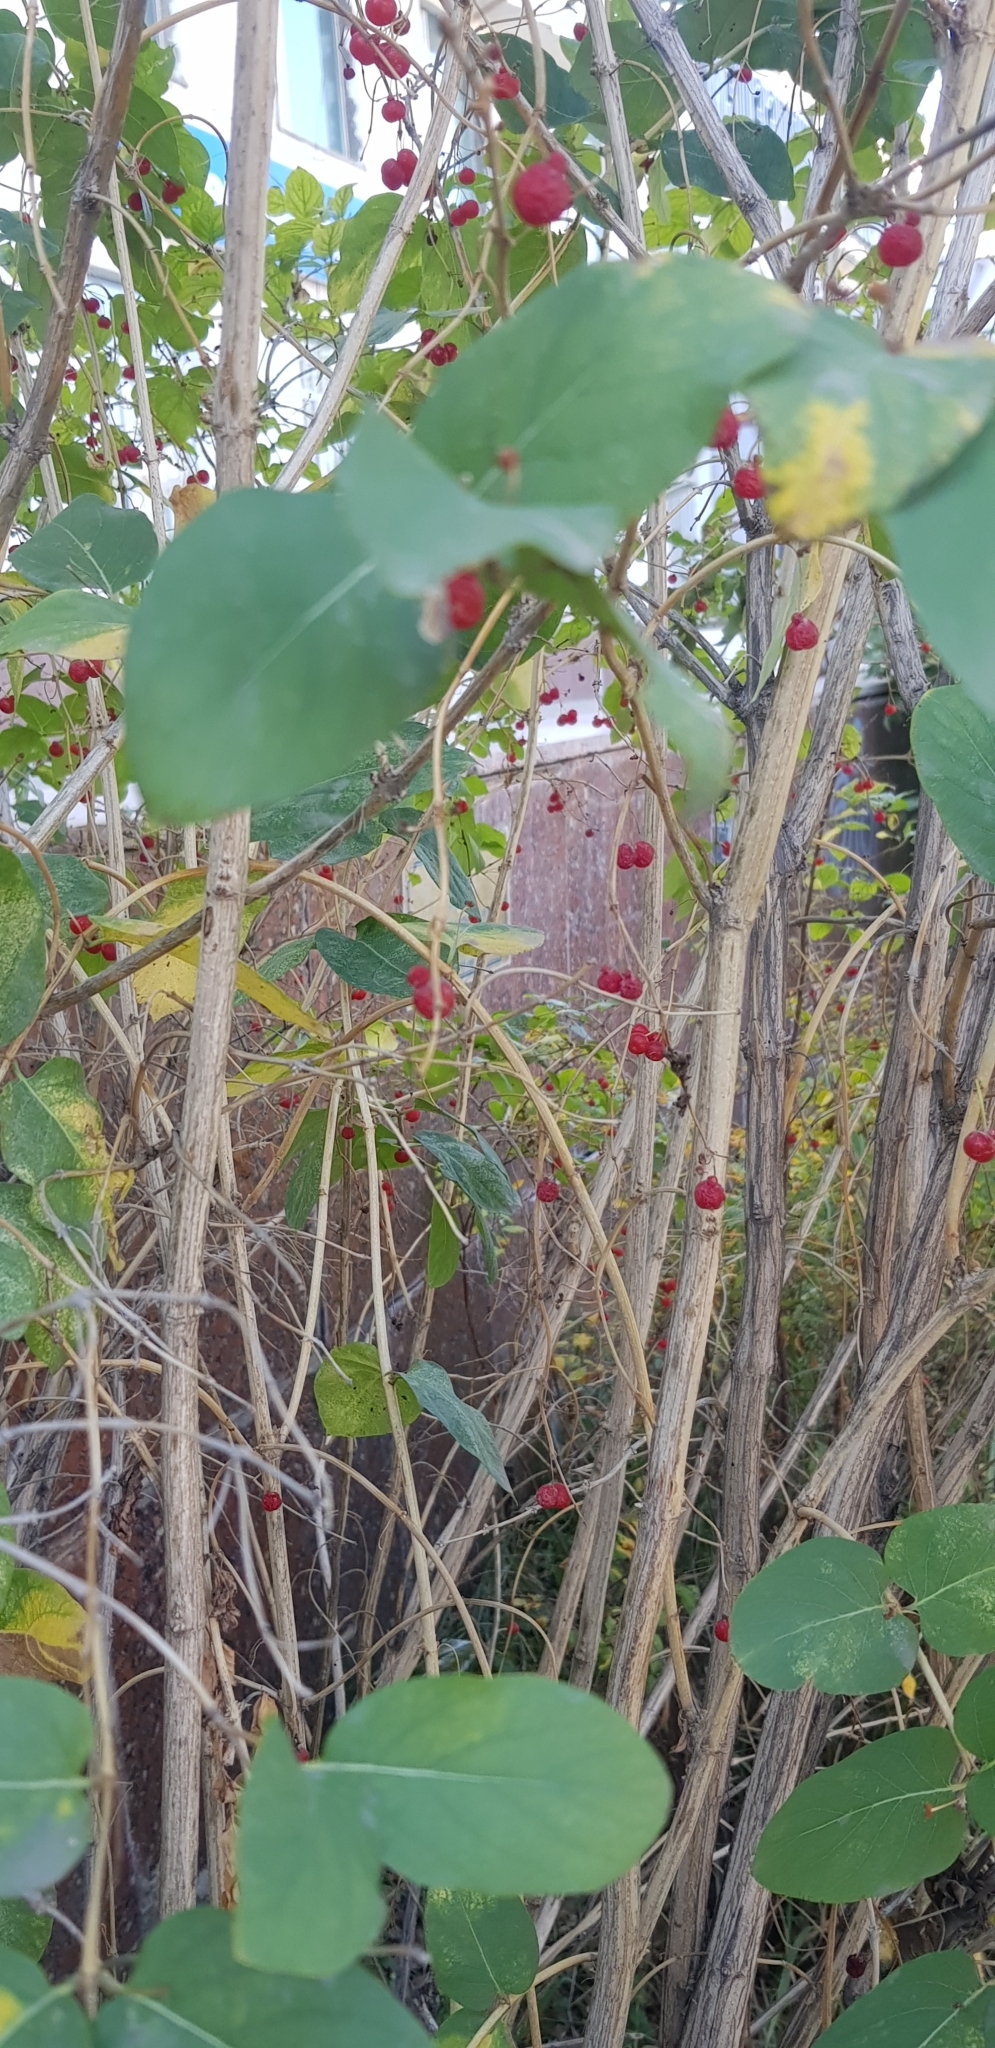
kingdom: Plantae
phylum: Tracheophyta
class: Magnoliopsida
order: Dipsacales
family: Caprifoliaceae
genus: Lonicera
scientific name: Lonicera tatarica
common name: Tatarian honeysuckle
